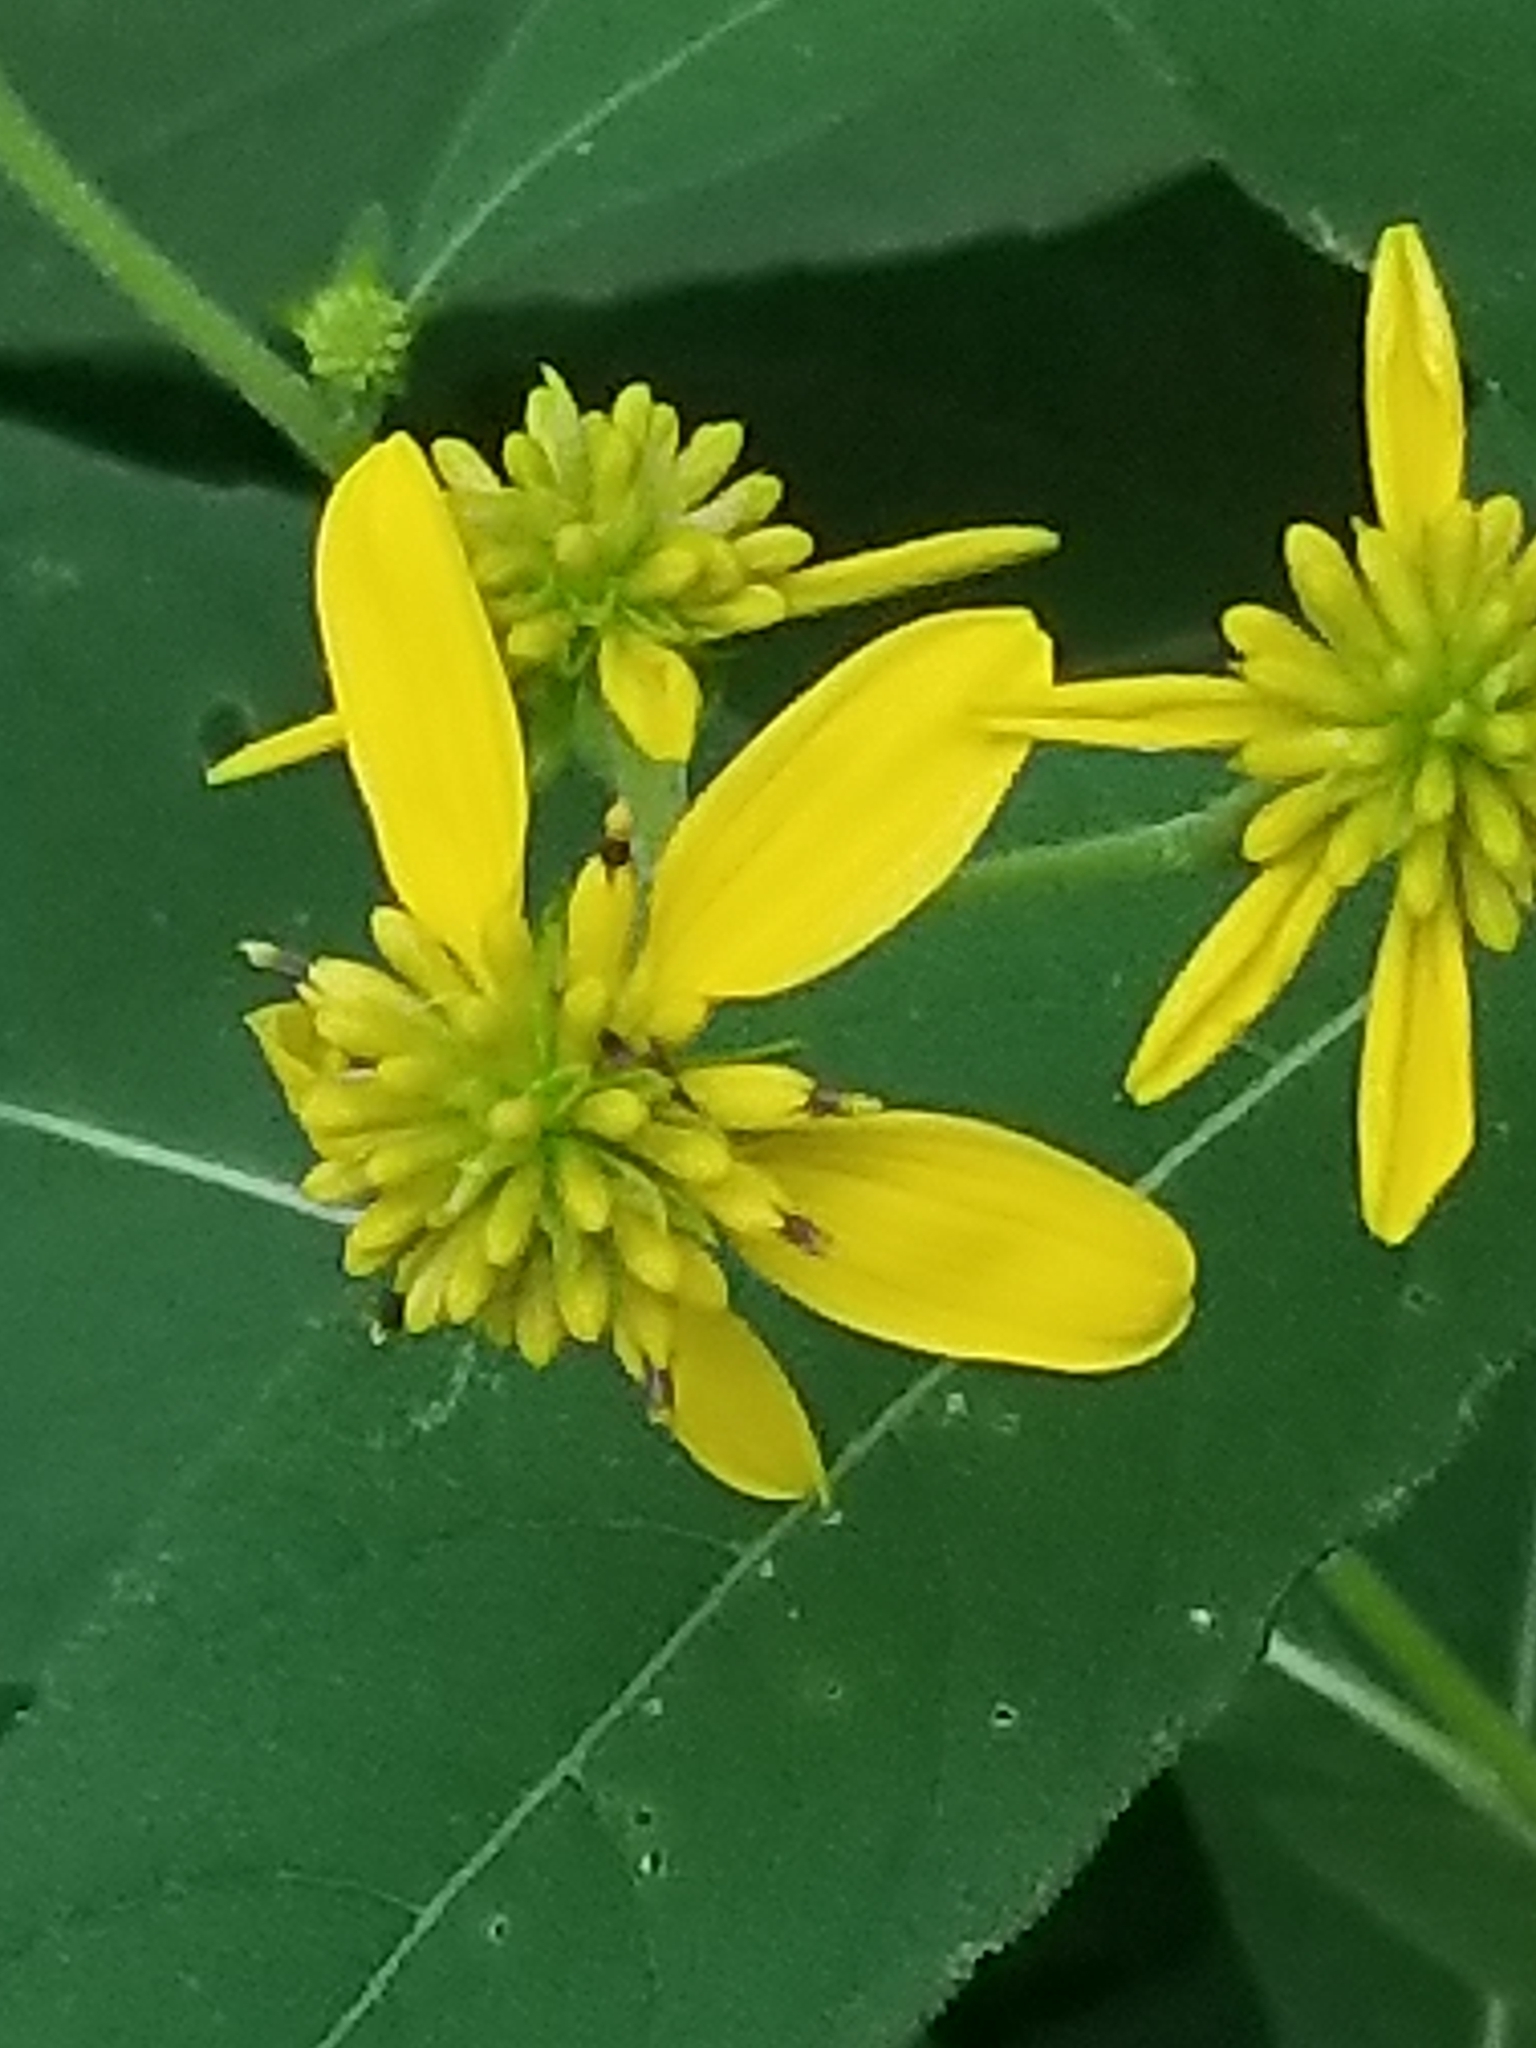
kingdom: Plantae
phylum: Tracheophyta
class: Magnoliopsida
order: Asterales
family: Asteraceae
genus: Verbesina
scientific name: Verbesina alternifolia
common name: Wingstem
